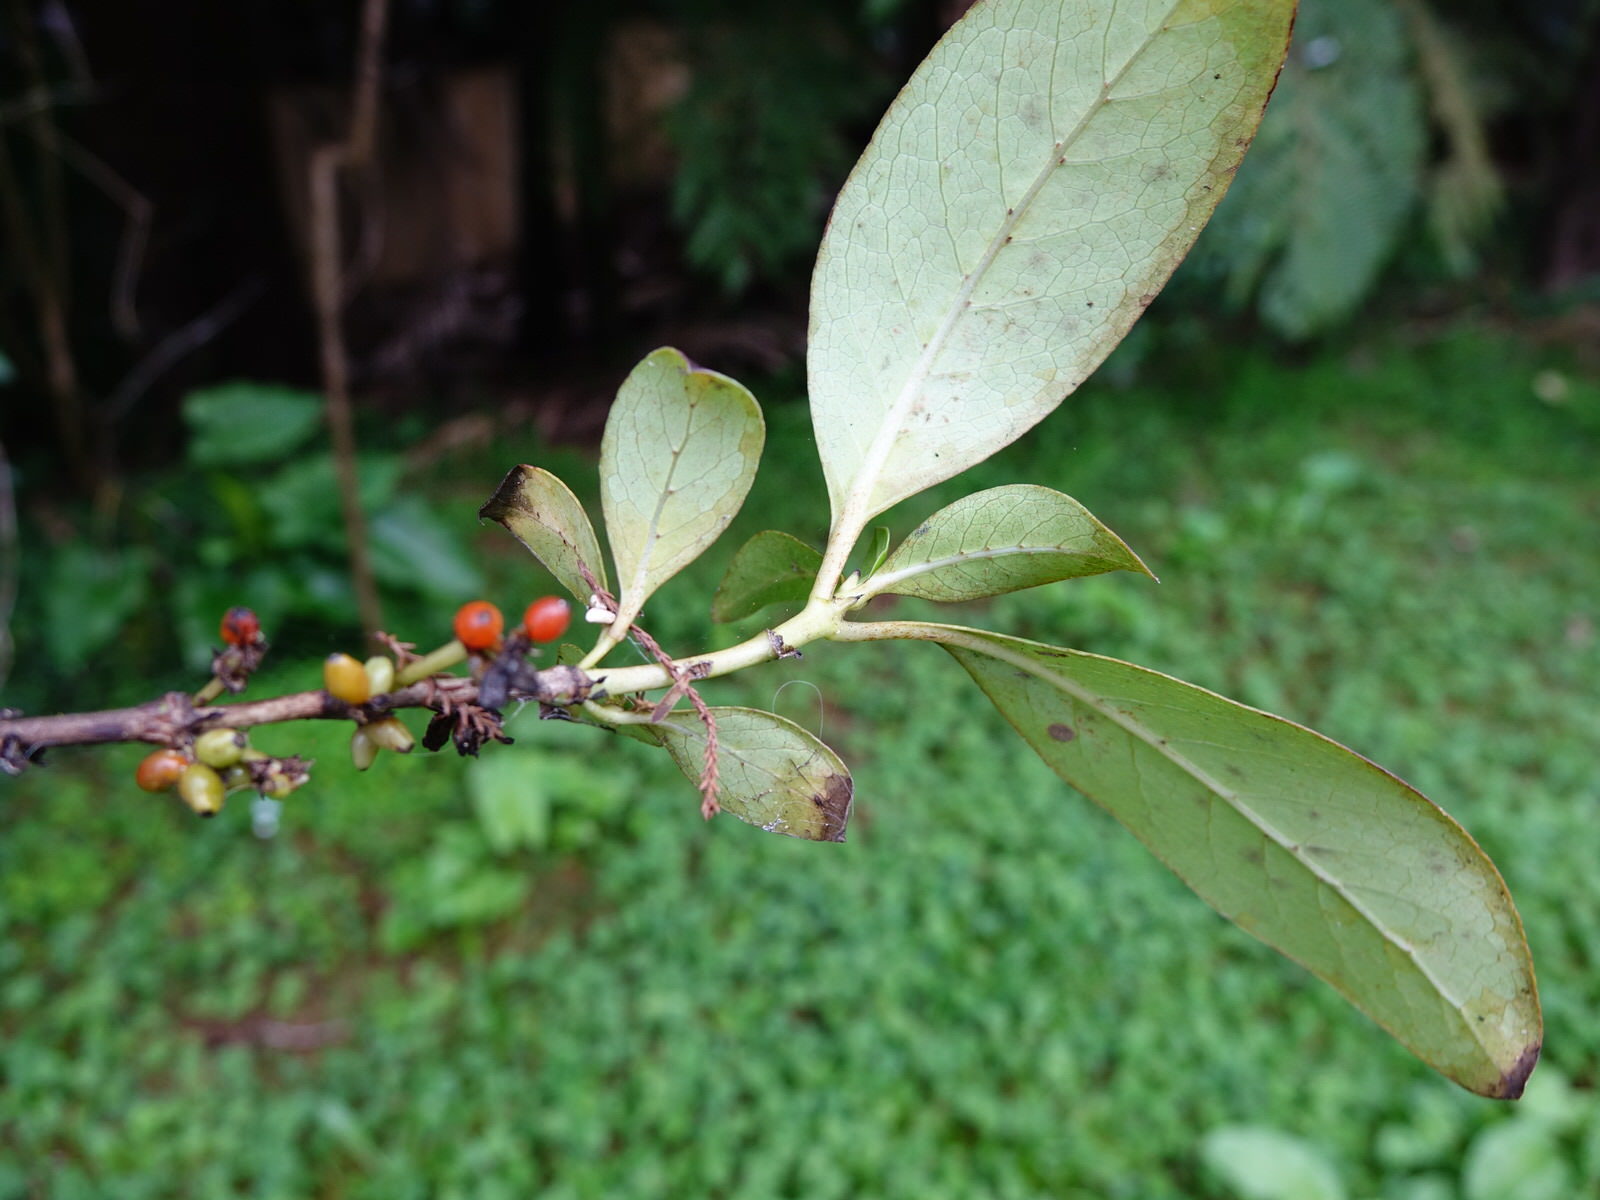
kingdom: Plantae
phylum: Tracheophyta
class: Magnoliopsida
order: Gentianales
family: Rubiaceae
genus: Coprosma
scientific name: Coprosma robusta
